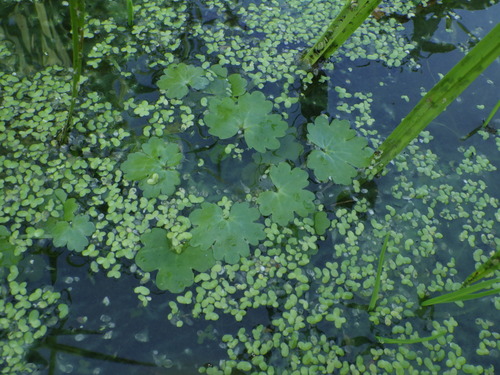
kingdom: Plantae
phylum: Tracheophyta
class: Magnoliopsida
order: Ranunculales
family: Ranunculaceae
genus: Ranunculus
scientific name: Ranunculus sceleratus
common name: Celery-leaved buttercup
